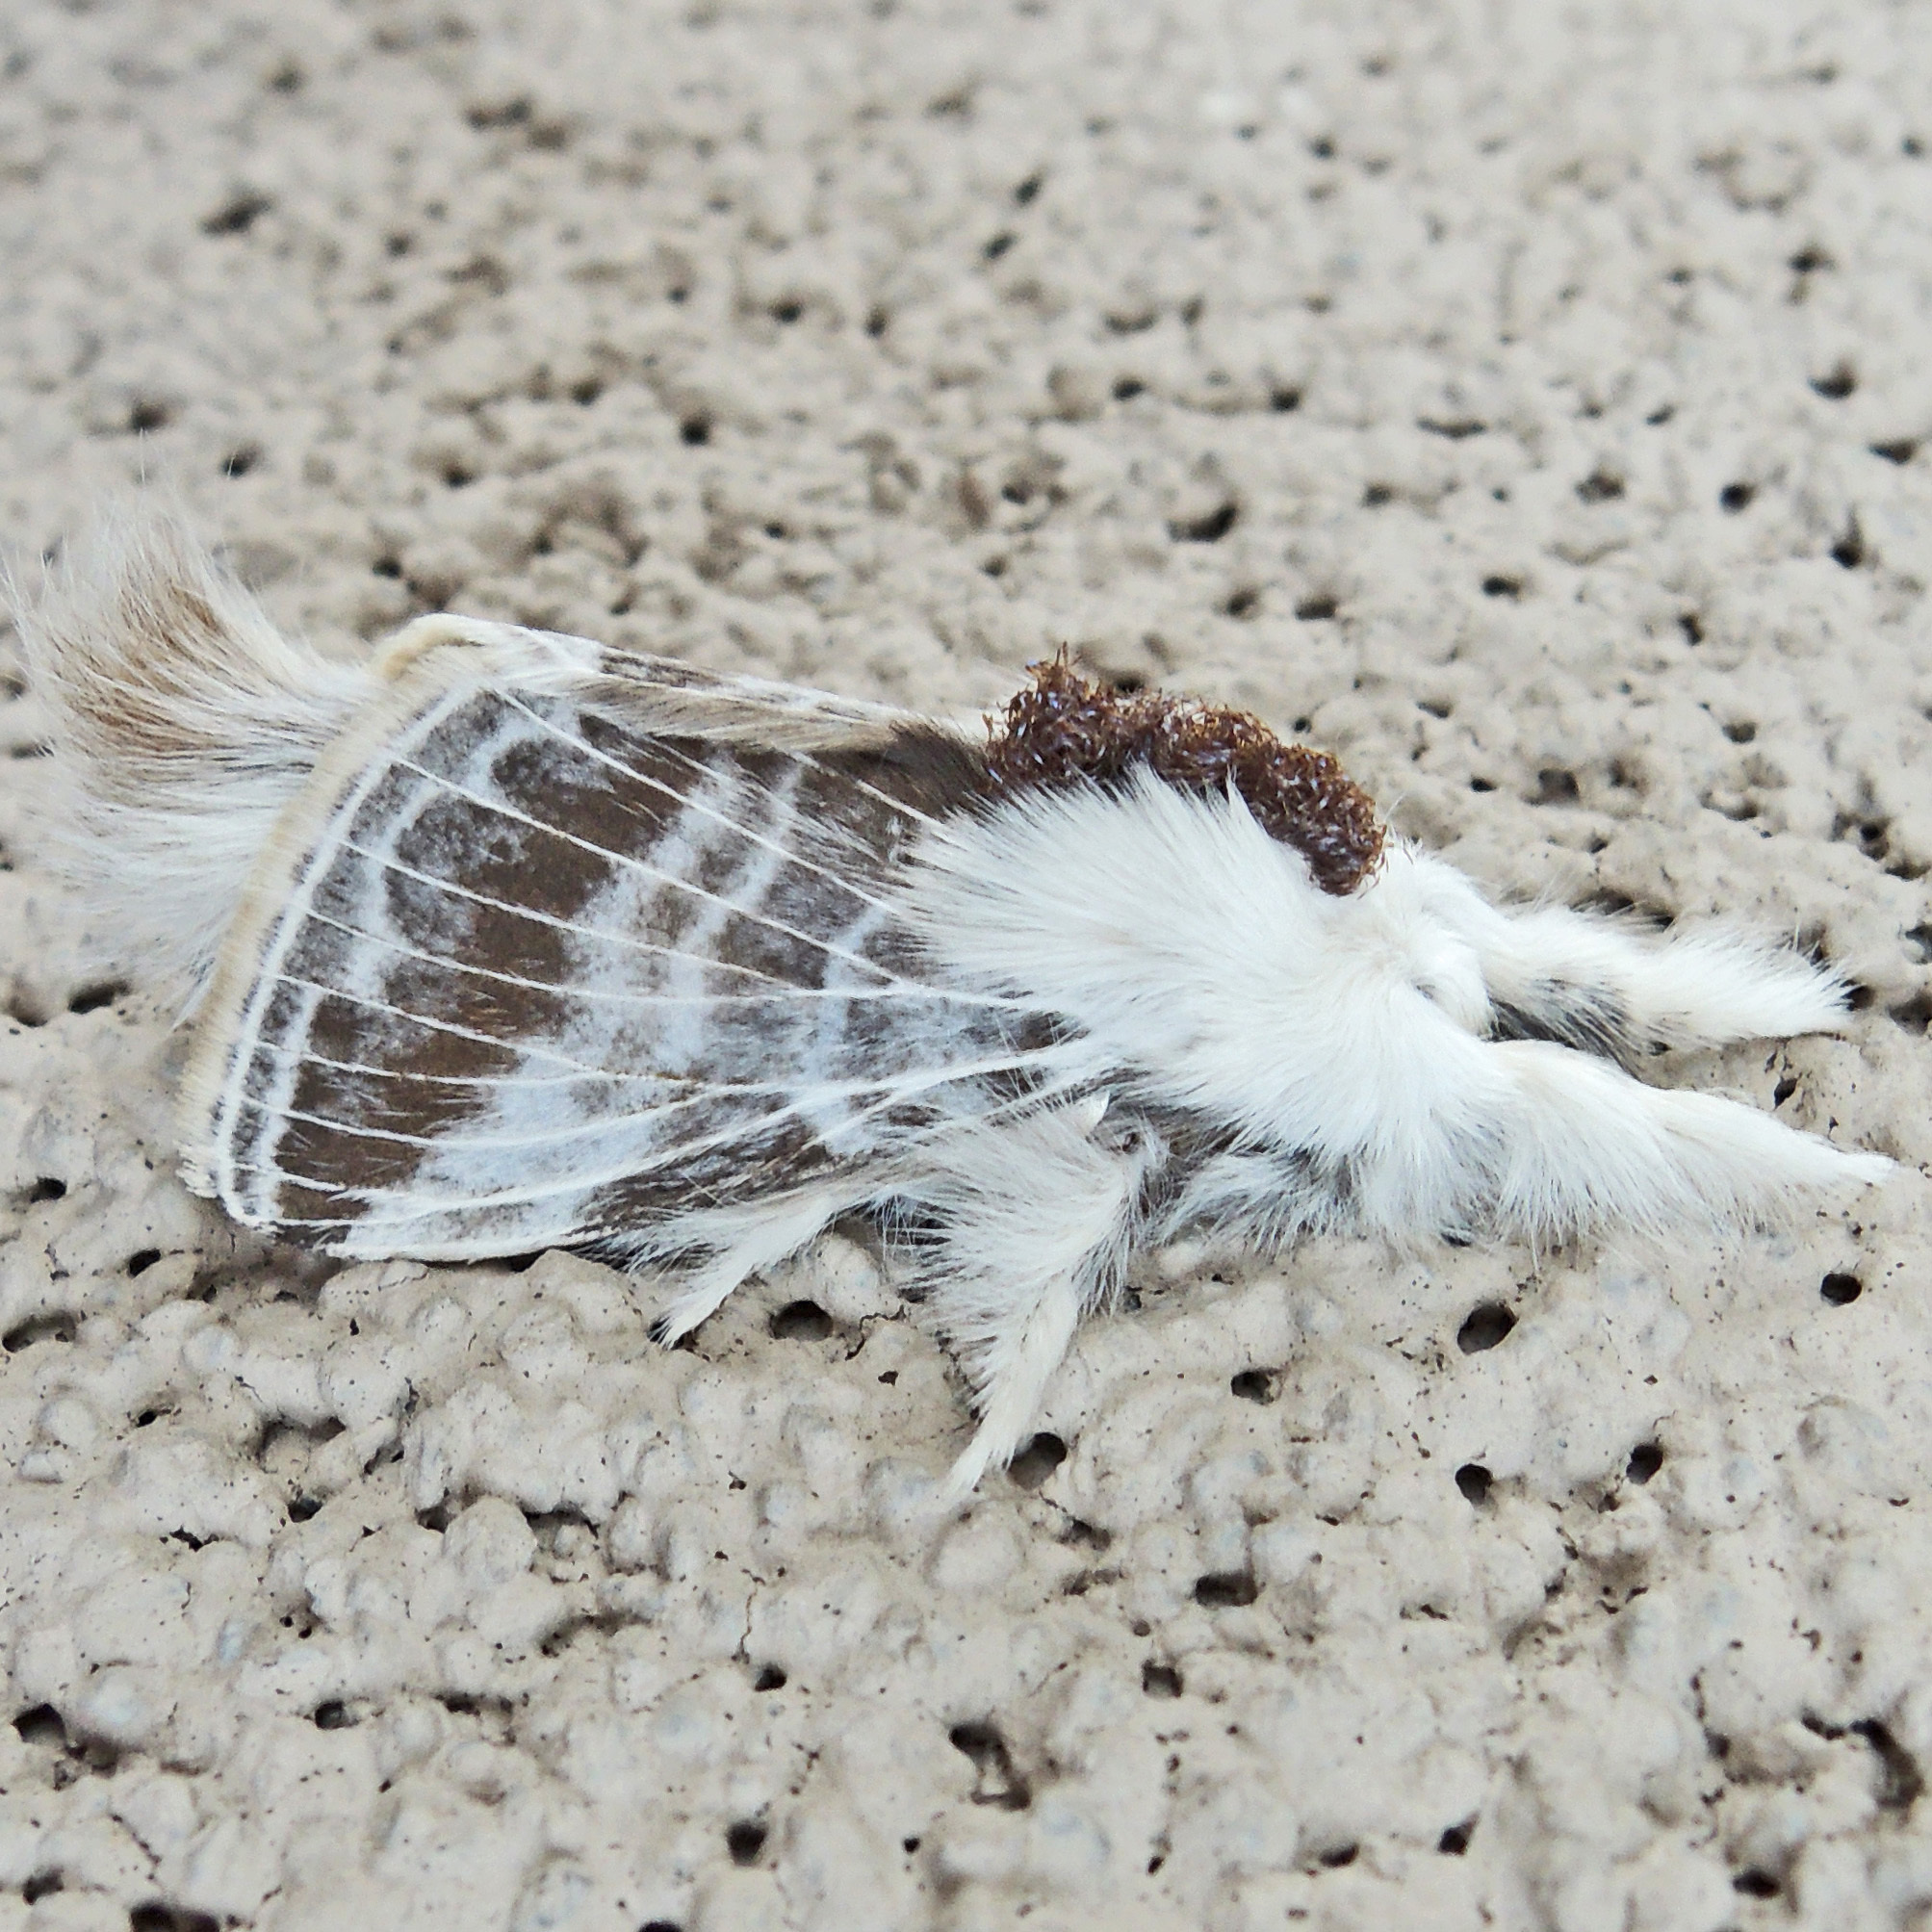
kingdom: Animalia
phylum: Arthropoda
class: Insecta
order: Lepidoptera
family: Lasiocampidae
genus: Tolype
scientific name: Tolype velleda
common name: Large tolype moth
